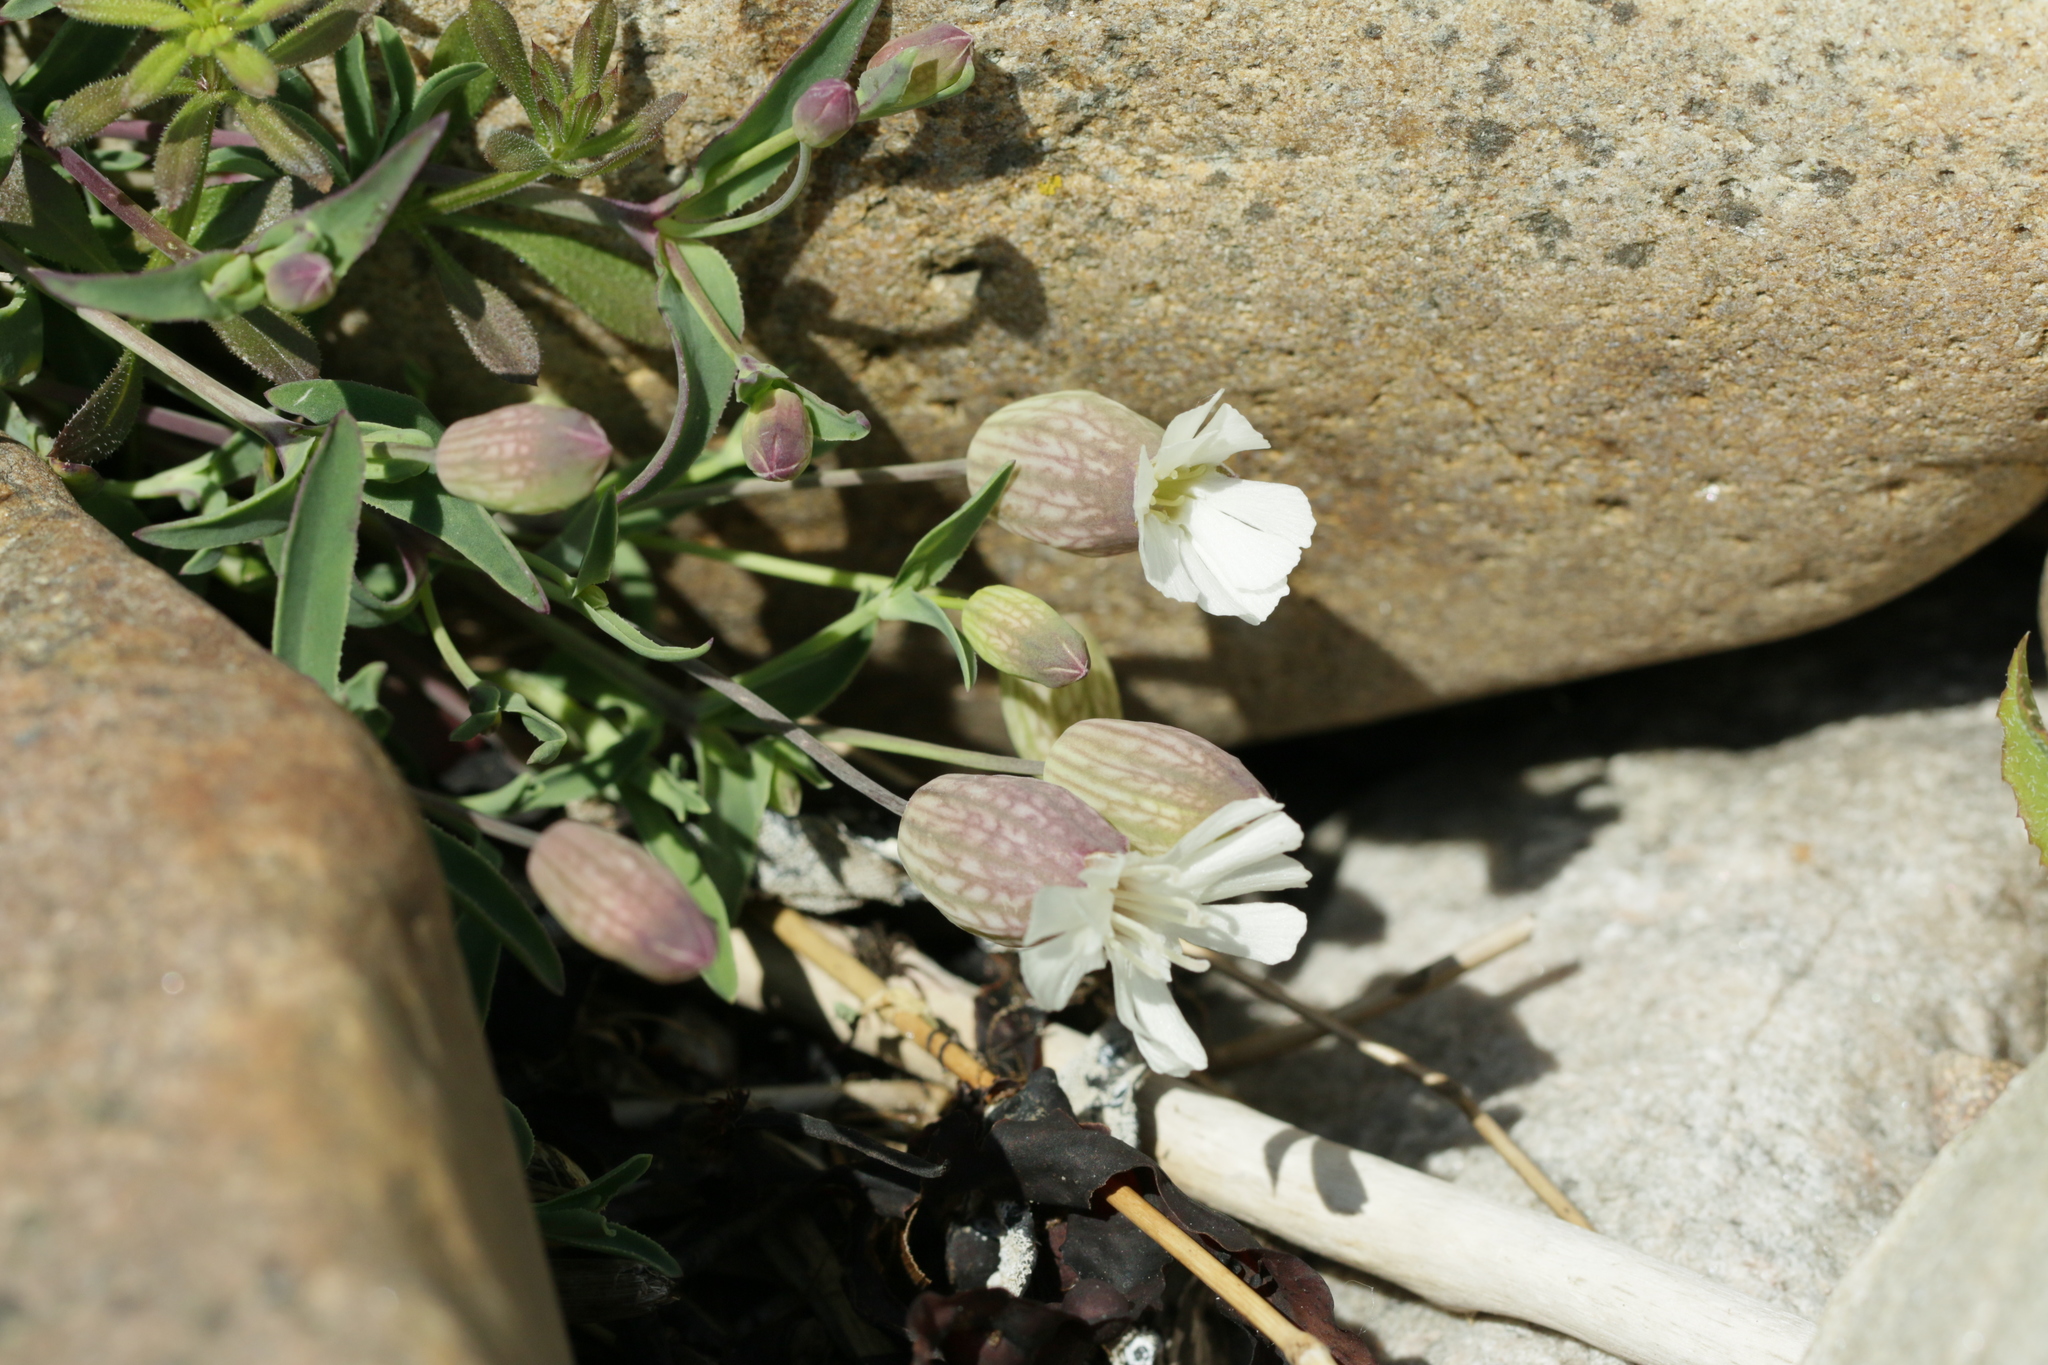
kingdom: Plantae
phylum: Tracheophyta
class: Magnoliopsida
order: Caryophyllales
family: Caryophyllaceae
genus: Silene
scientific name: Silene uniflora
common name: Sea campion
